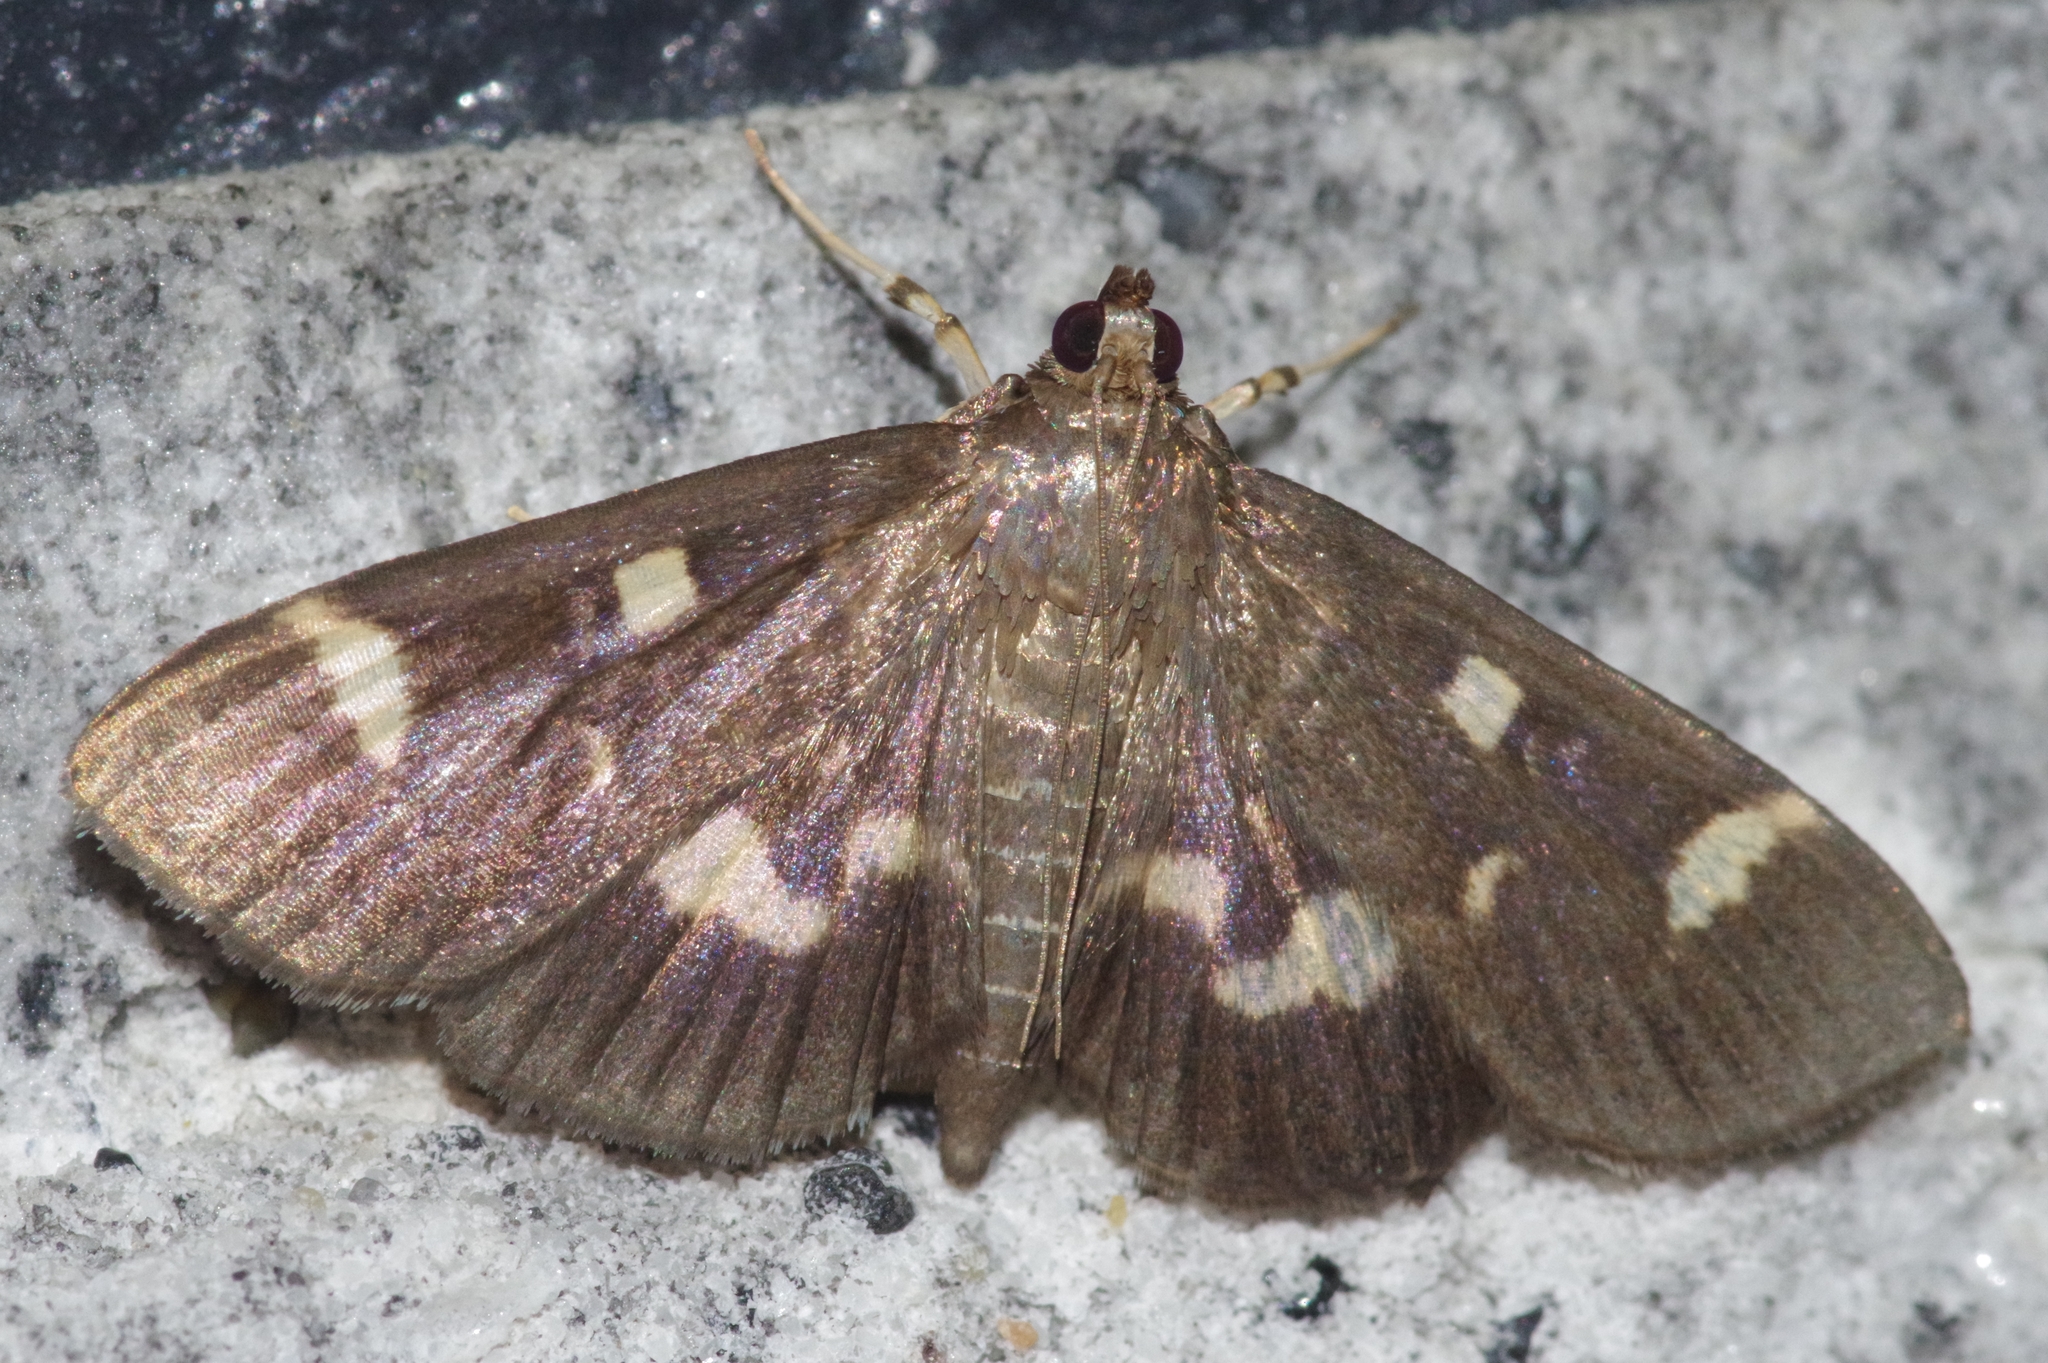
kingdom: Animalia
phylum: Arthropoda
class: Insecta
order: Lepidoptera
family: Crambidae
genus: Herpetogramma
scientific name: Herpetogramma luctuosalis
